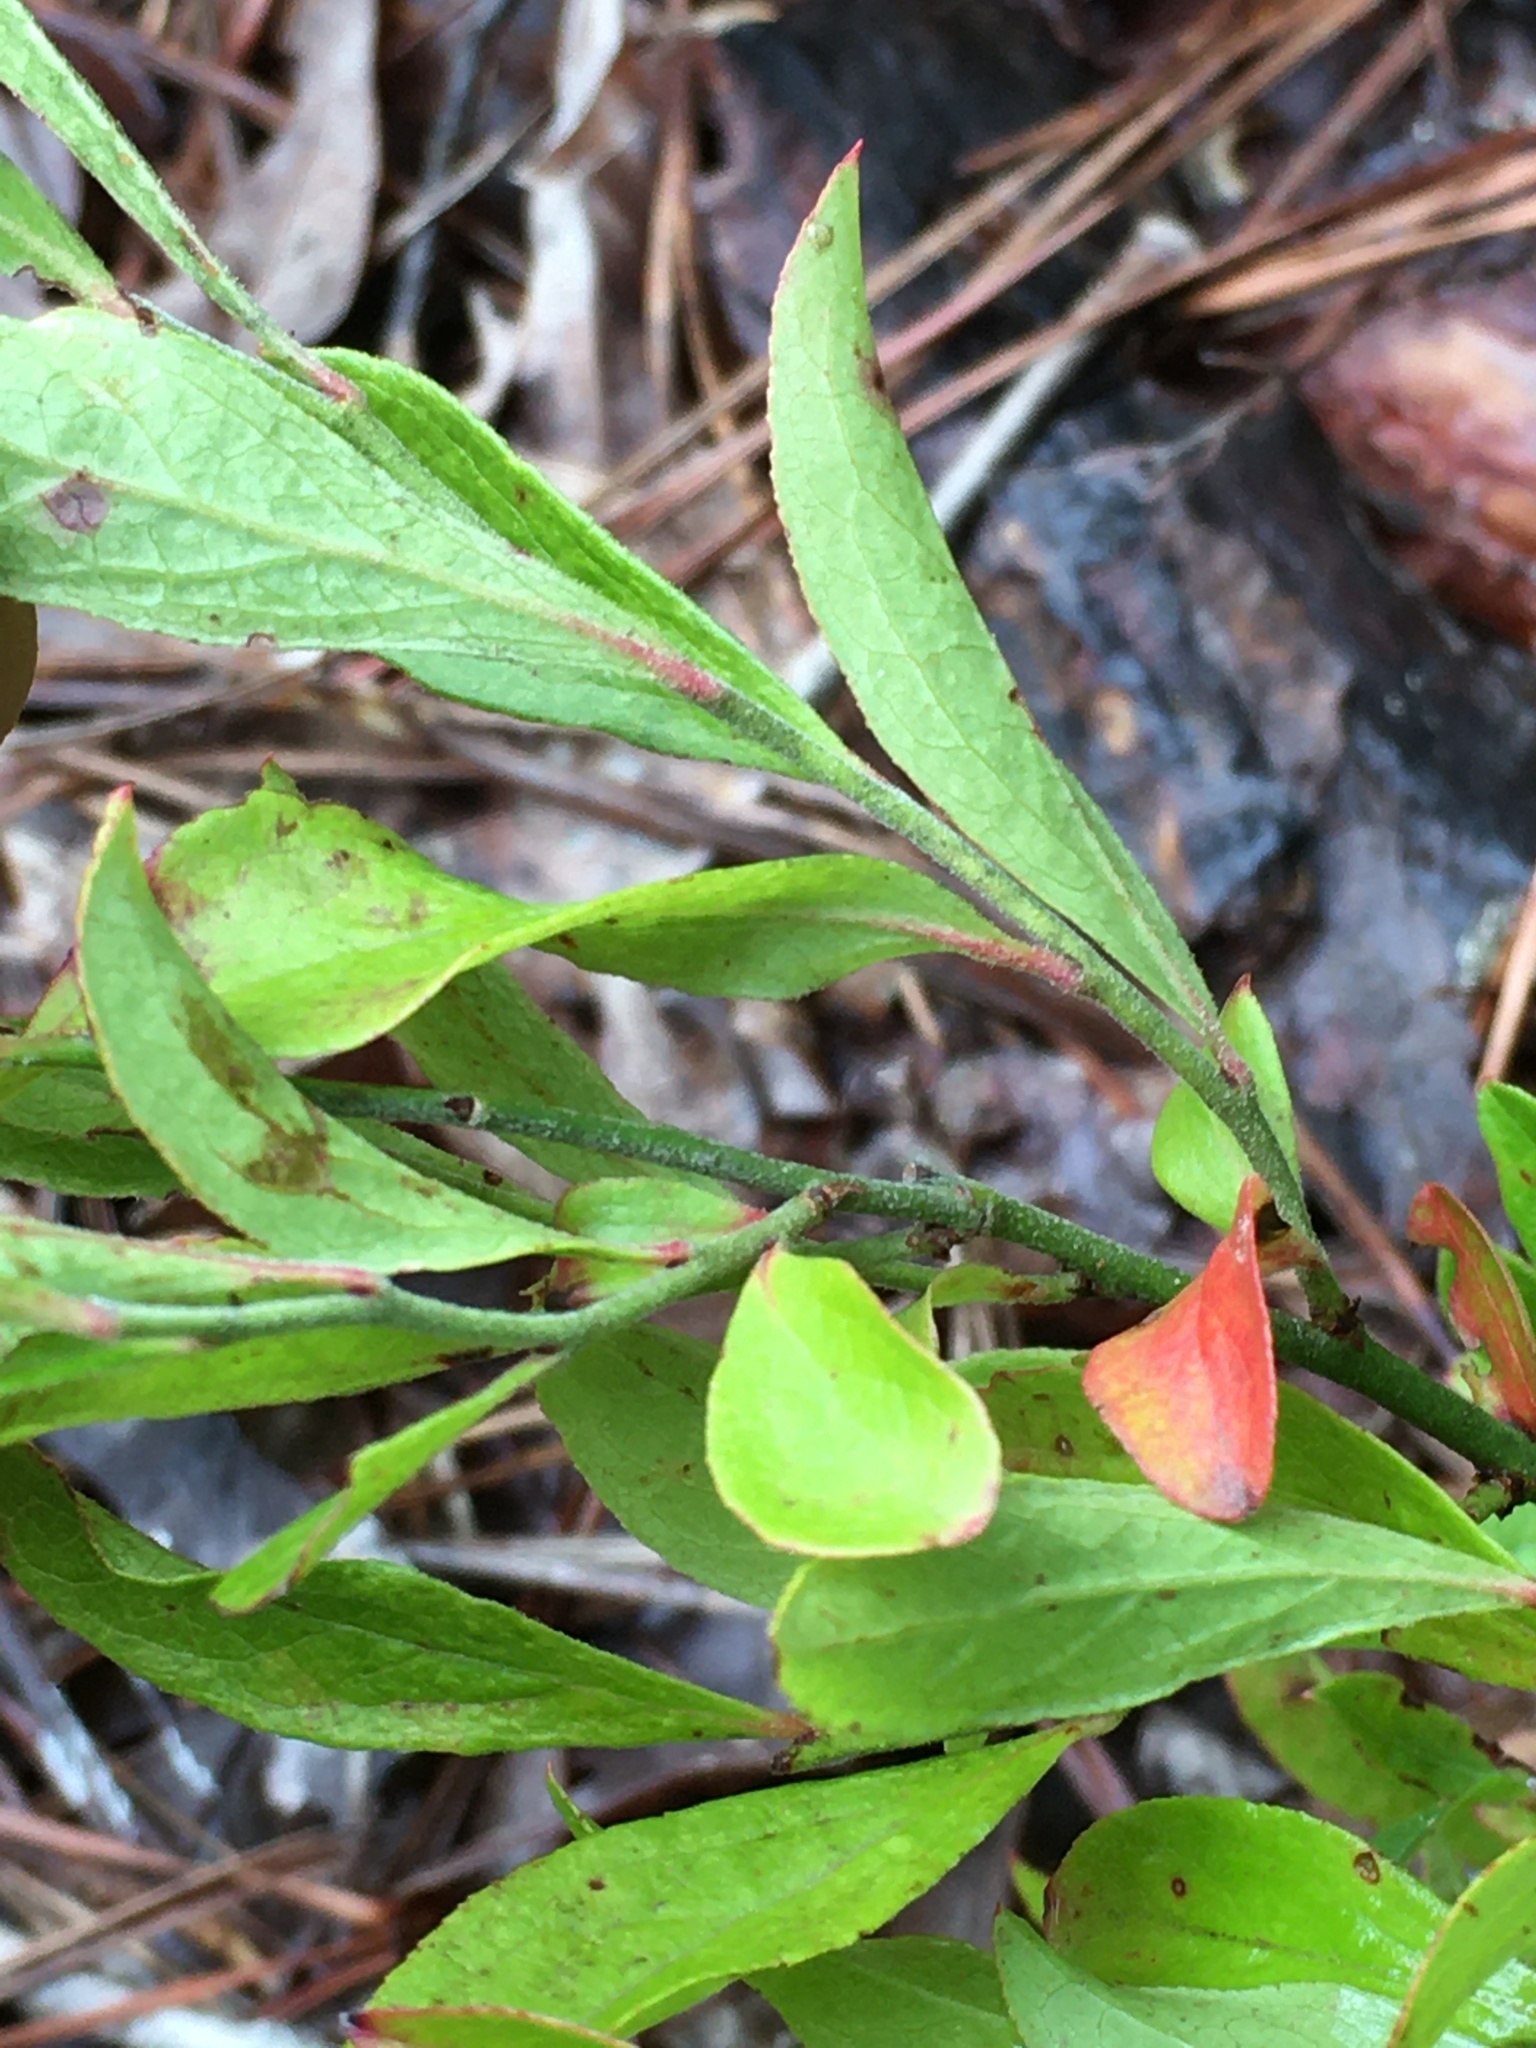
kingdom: Plantae
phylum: Tracheophyta
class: Magnoliopsida
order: Ericales
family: Ericaceae
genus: Vaccinium
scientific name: Vaccinium tenellum
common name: Southern blueberry
